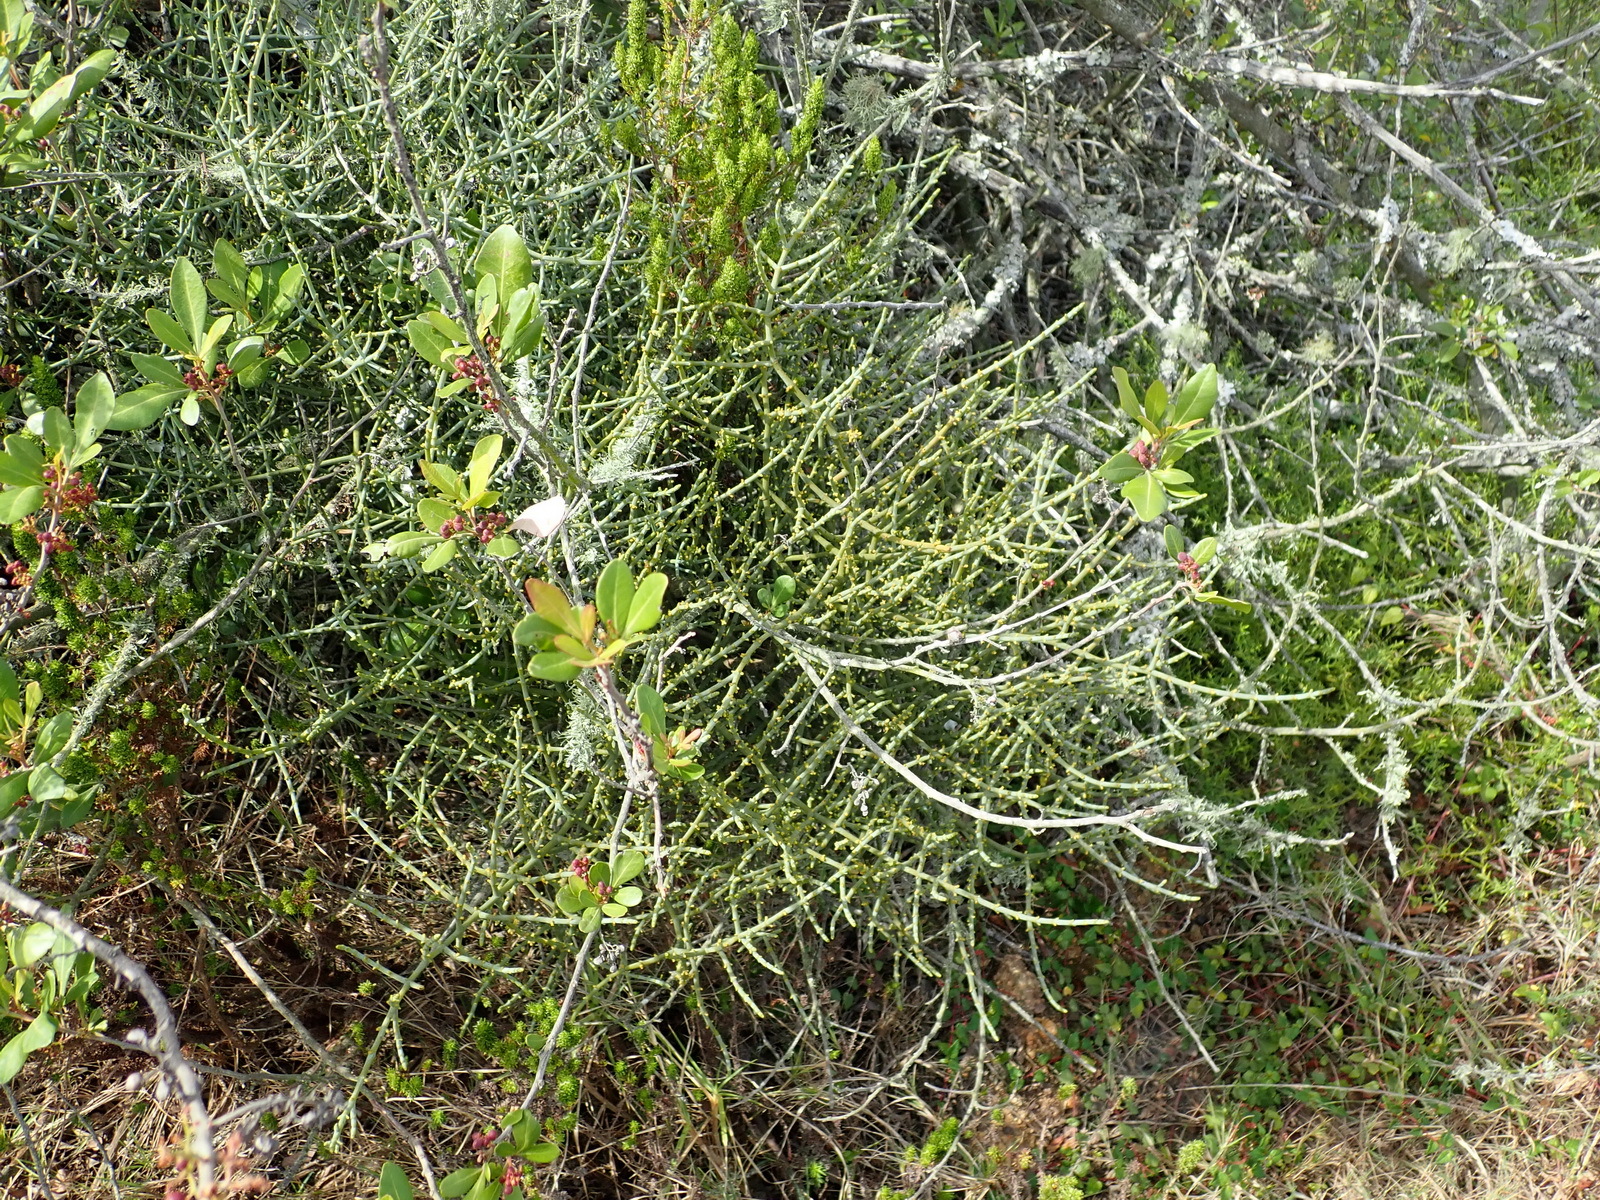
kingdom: Plantae
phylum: Tracheophyta
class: Magnoliopsida
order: Santalales
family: Viscaceae
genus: Viscum
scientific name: Viscum capense
